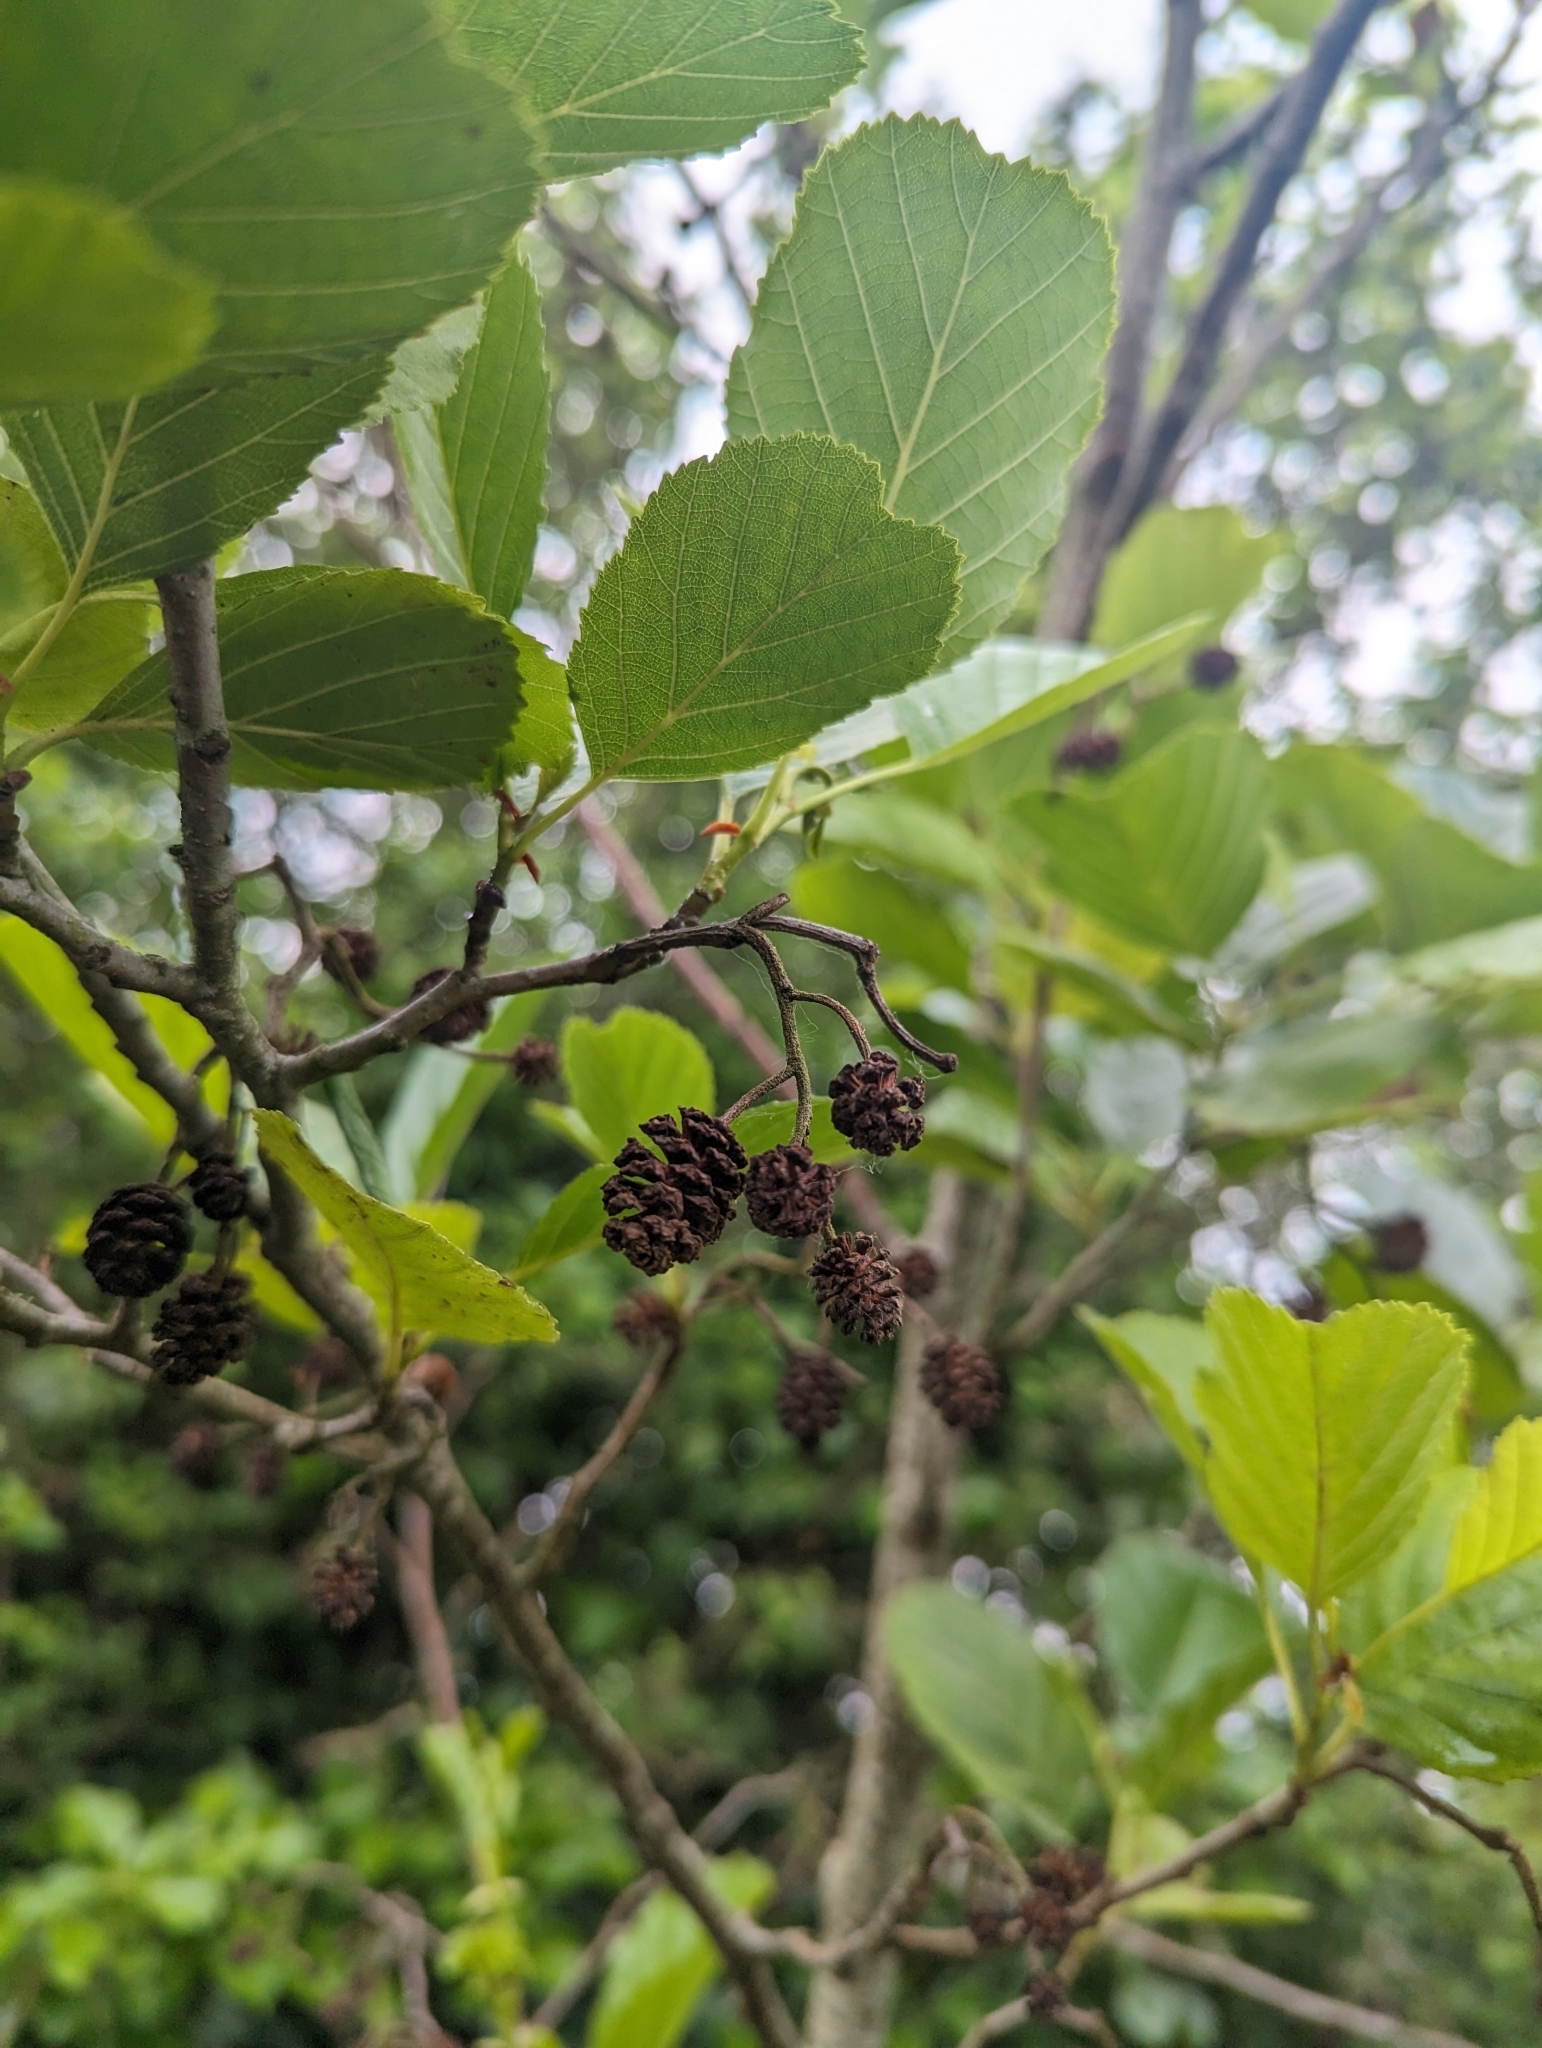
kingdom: Plantae
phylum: Tracheophyta
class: Magnoliopsida
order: Fagales
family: Betulaceae
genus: Alnus
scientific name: Alnus glutinosa
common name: Black alder
